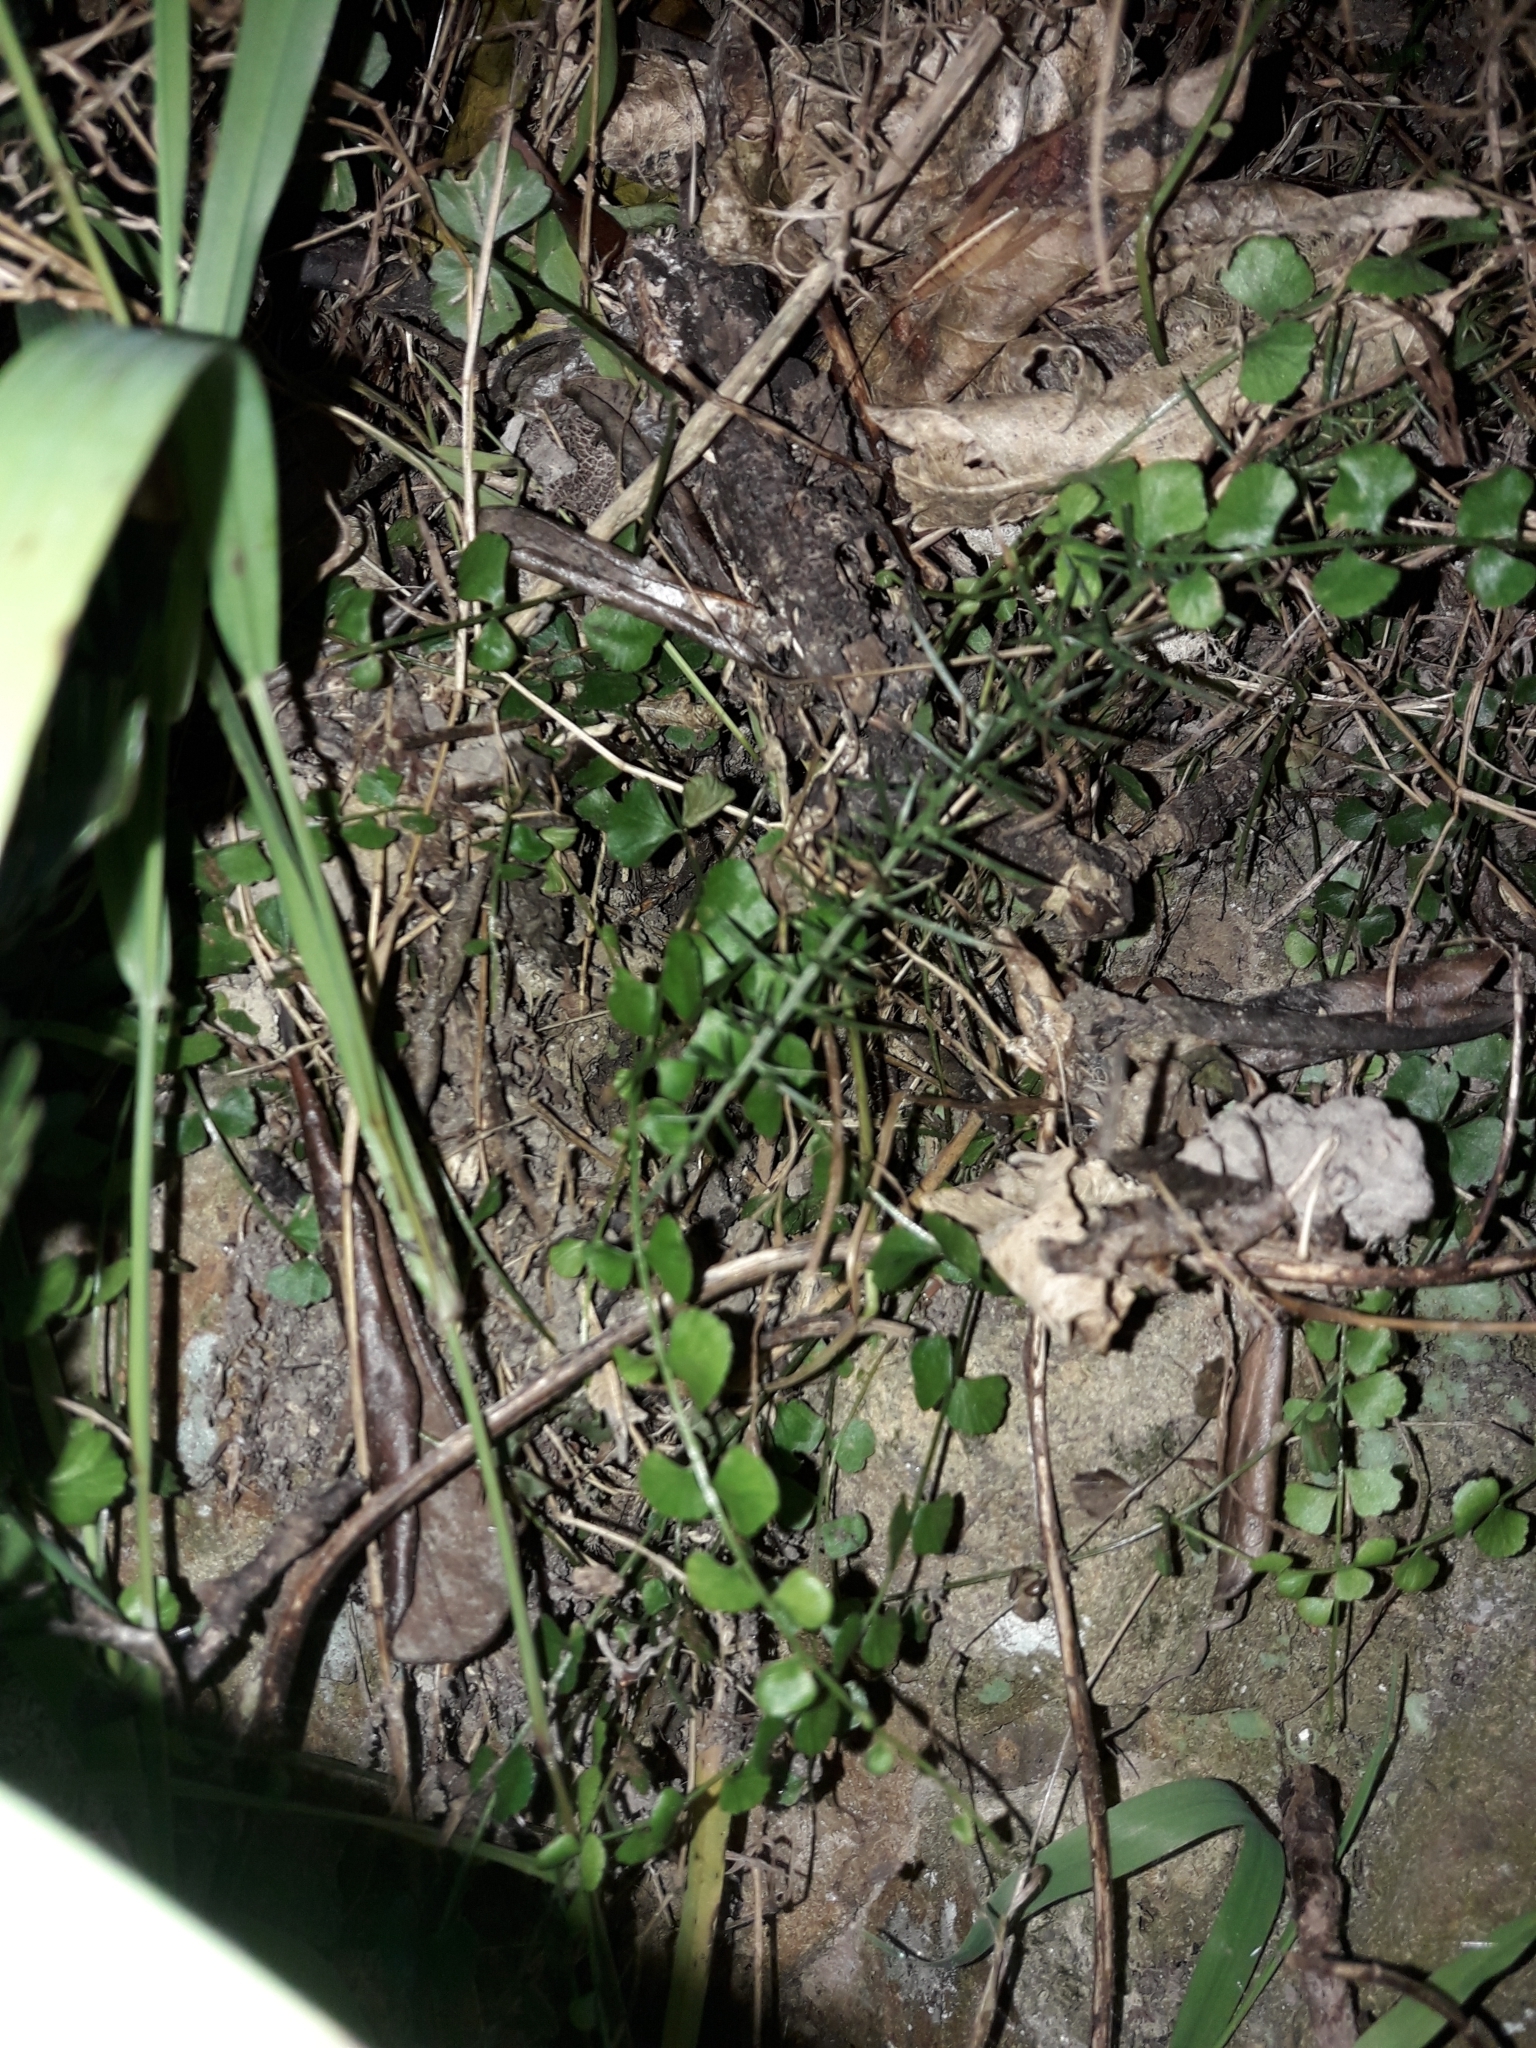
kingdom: Plantae
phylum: Tracheophyta
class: Polypodiopsida
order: Polypodiales
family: Aspleniaceae
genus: Asplenium
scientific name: Asplenium flabellifolium
